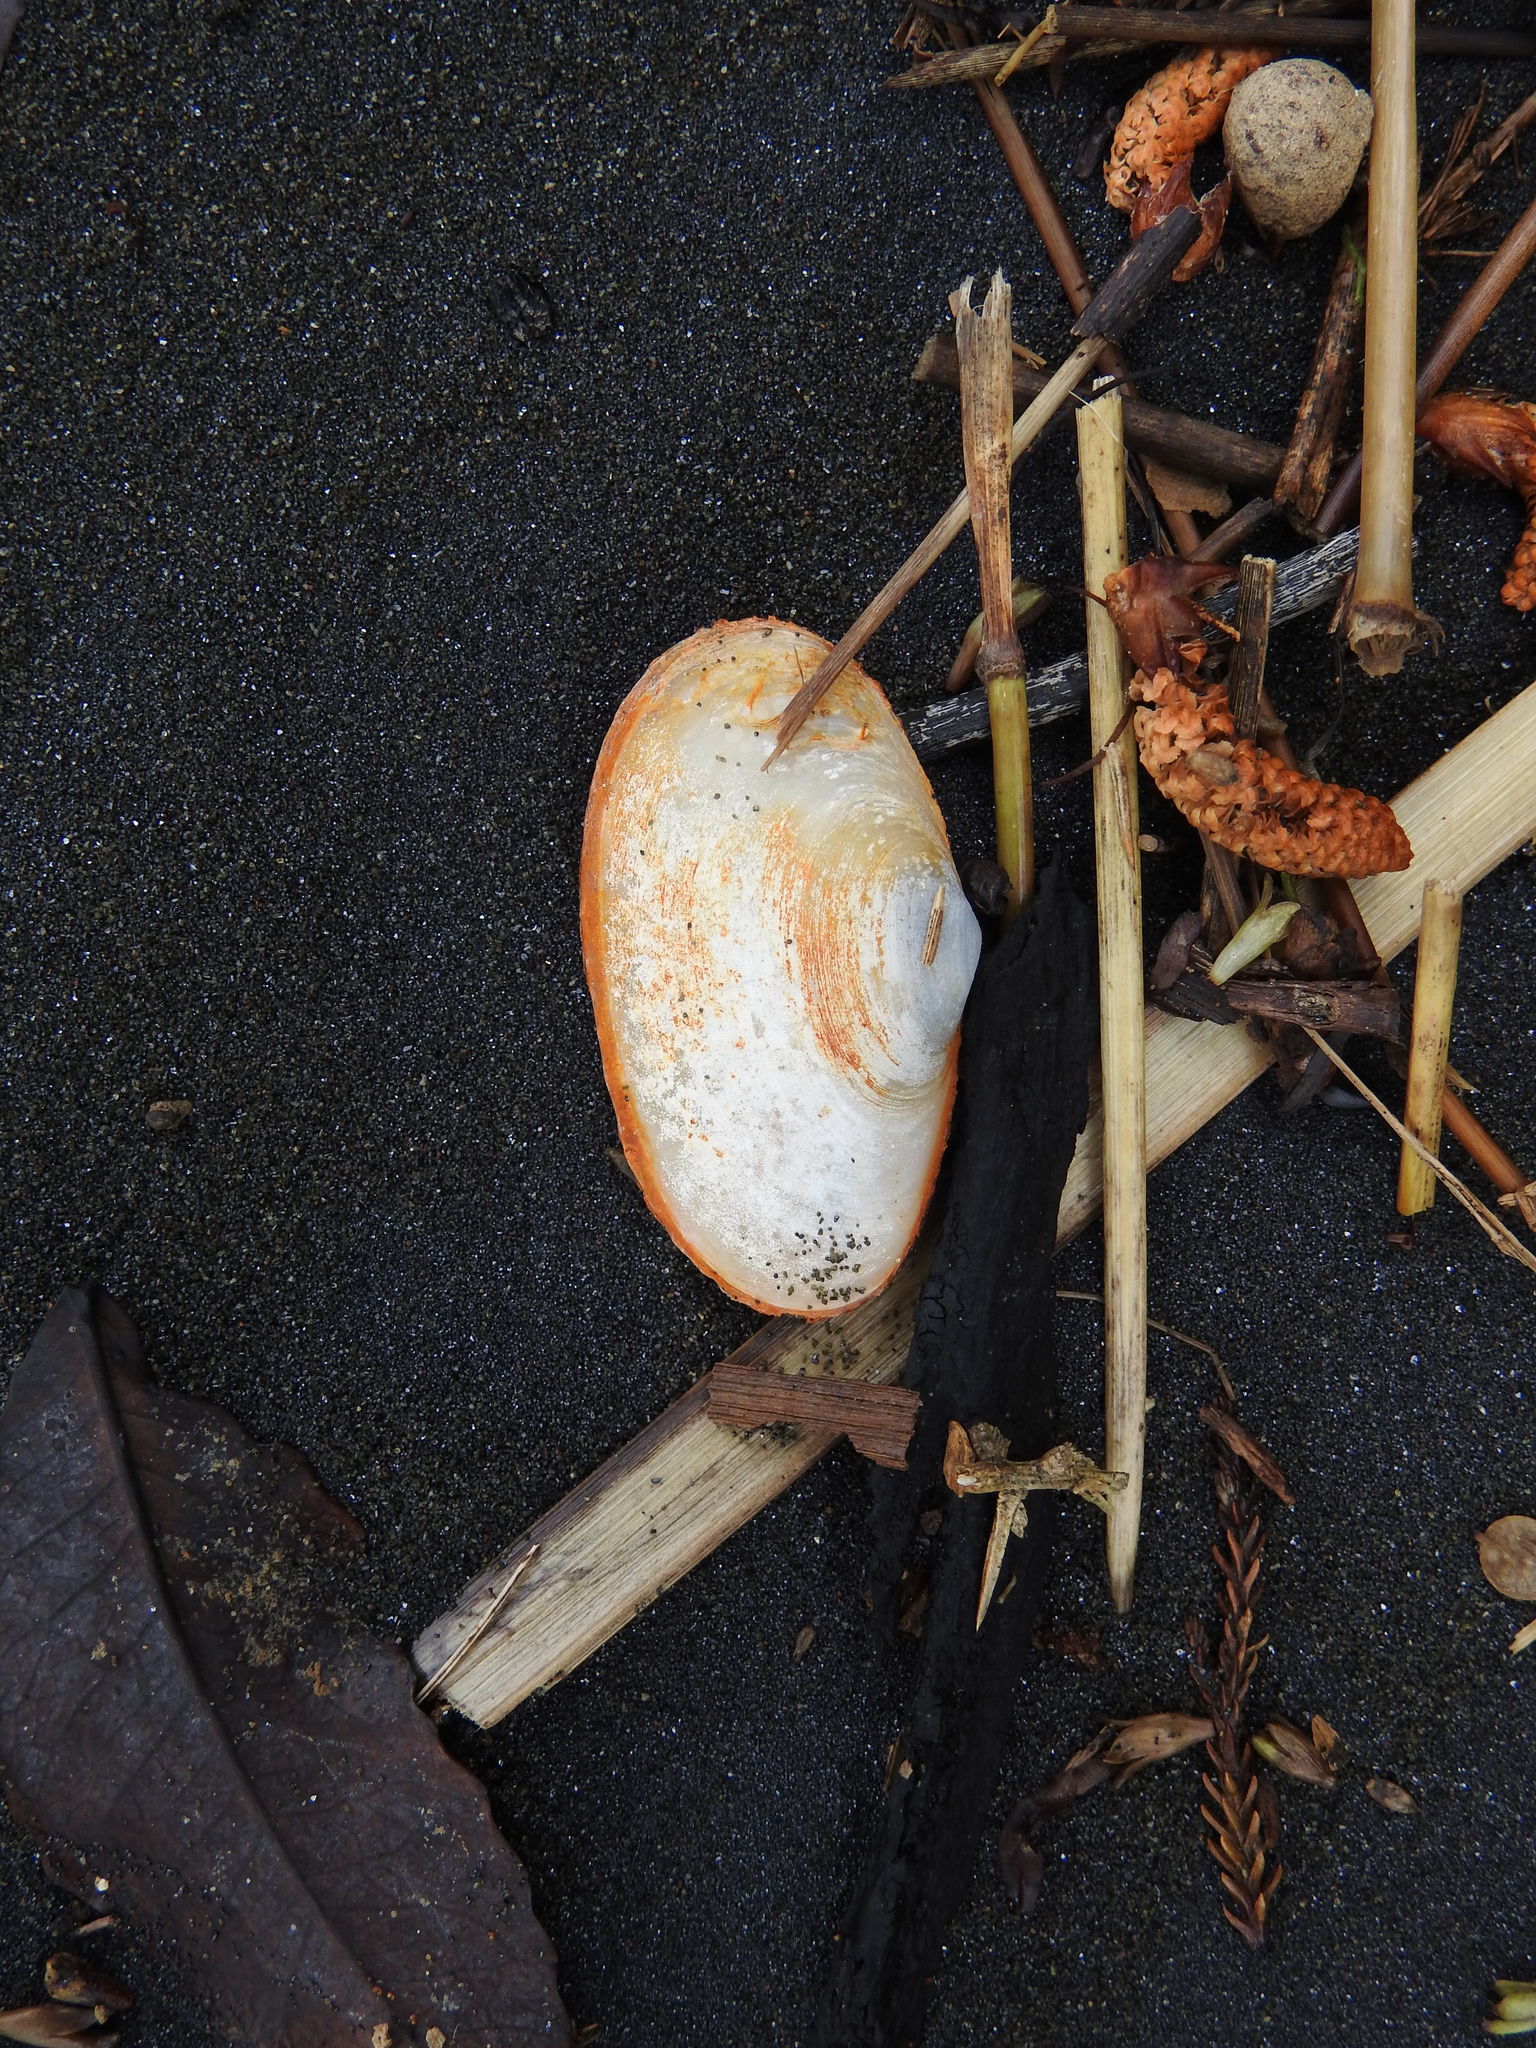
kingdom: Animalia
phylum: Mollusca
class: Bivalvia
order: Venerida
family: Mesodesmatidae
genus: Paphies
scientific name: Paphies australis
